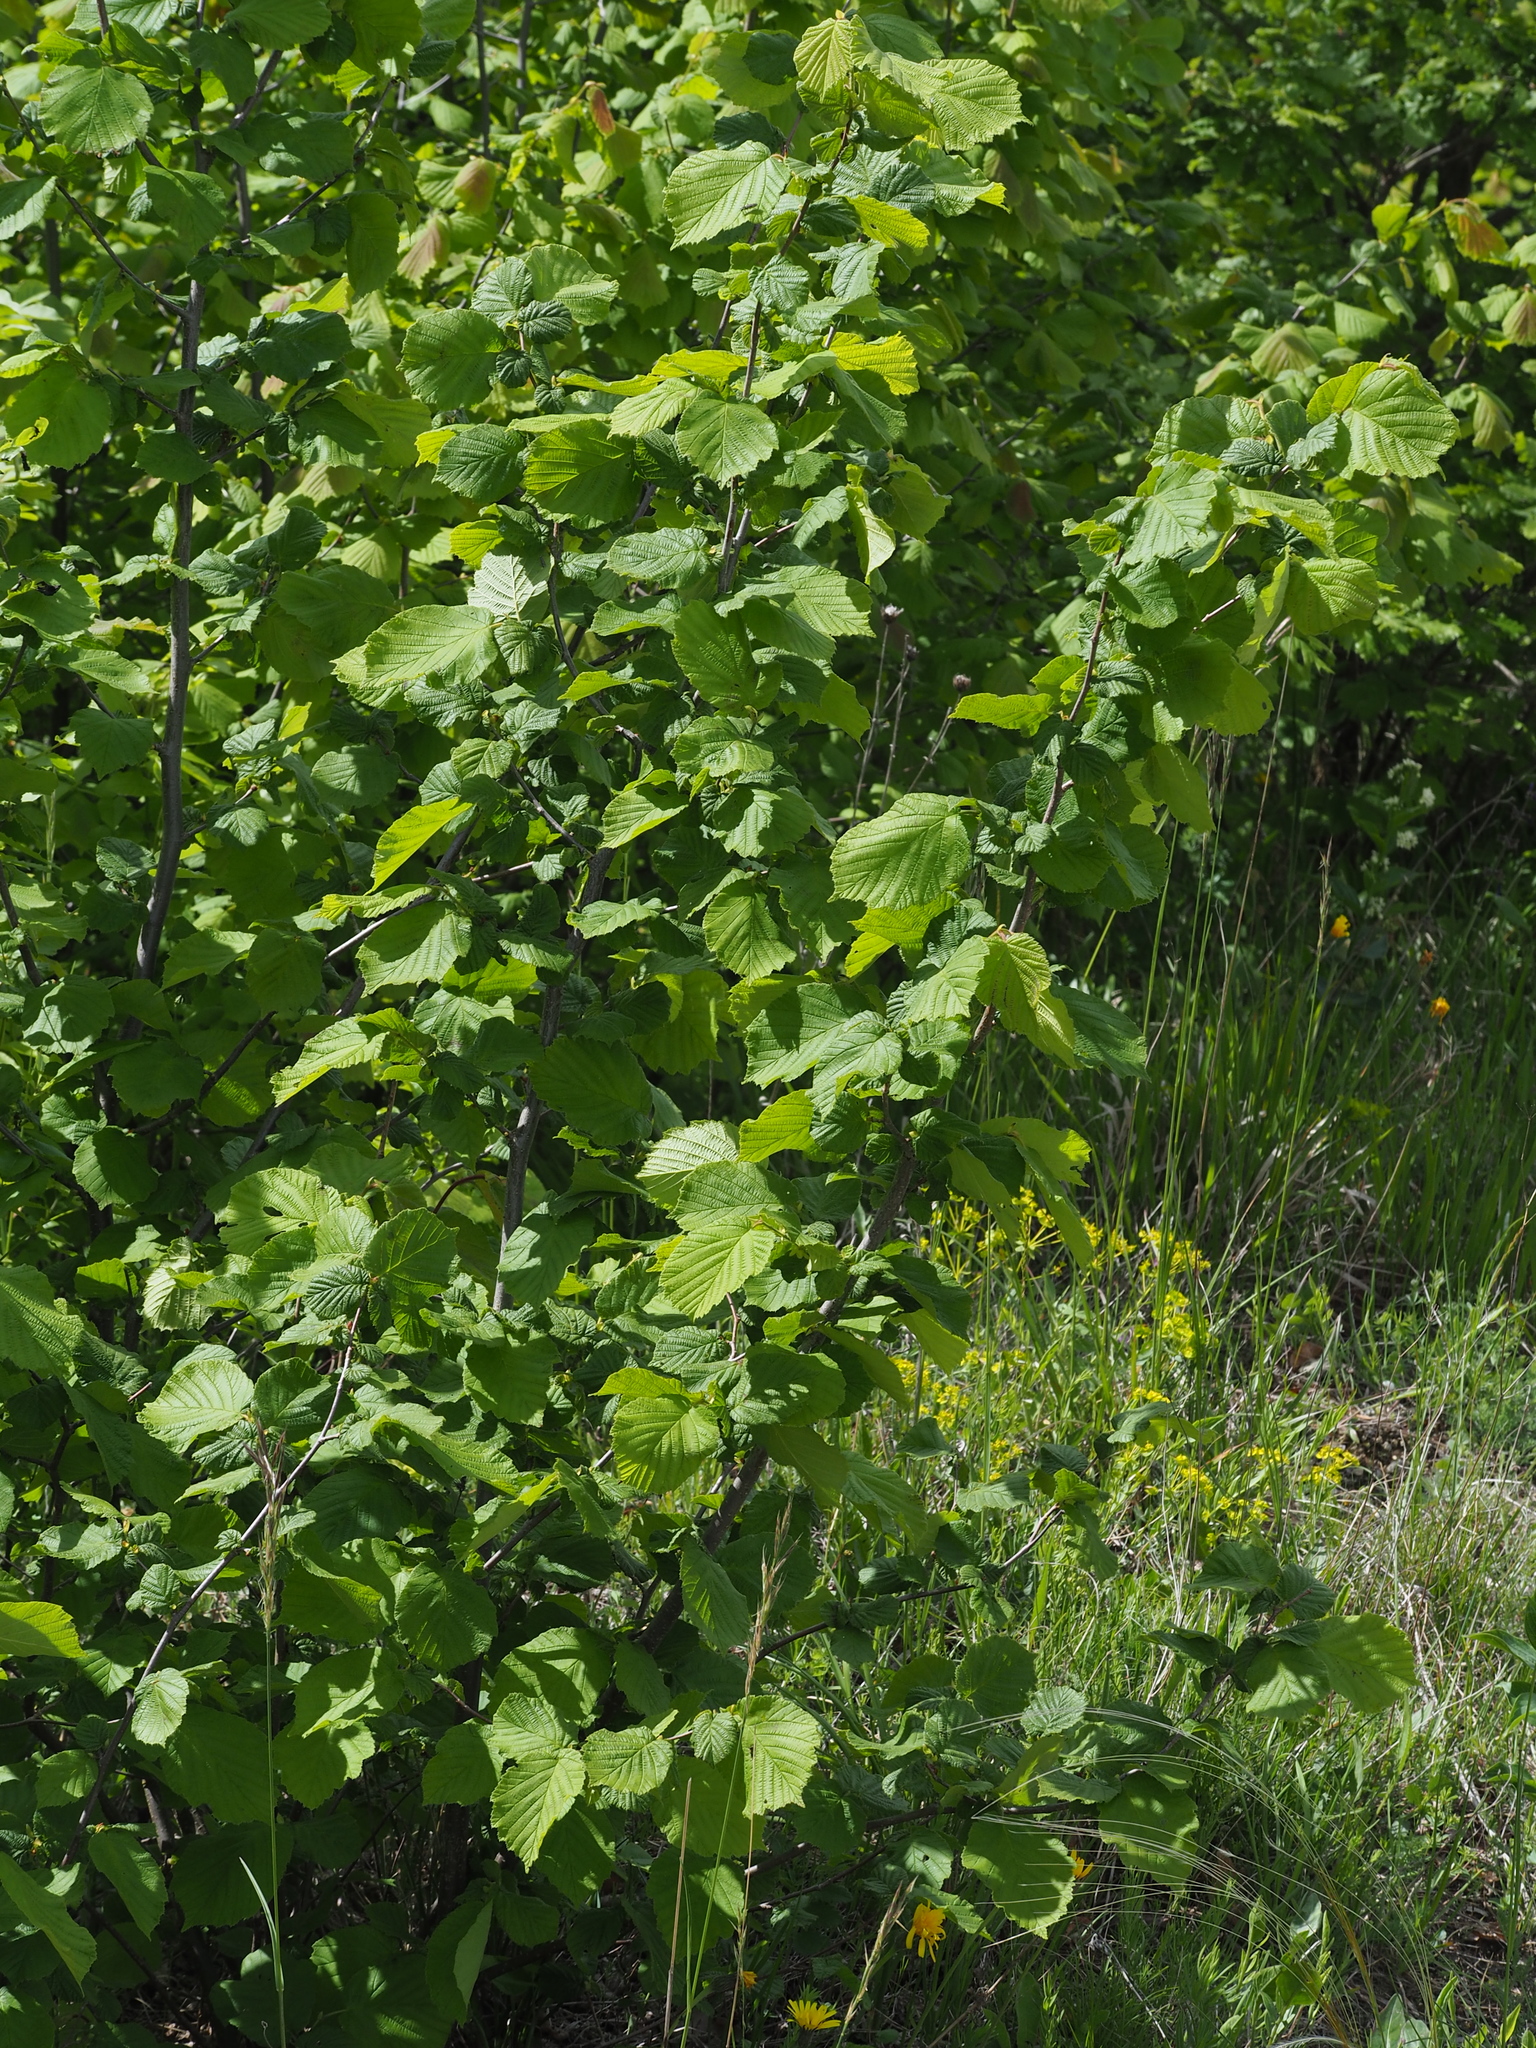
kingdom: Plantae
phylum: Tracheophyta
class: Magnoliopsida
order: Fagales
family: Betulaceae
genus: Corylus
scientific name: Corylus avellana
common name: European hazel
